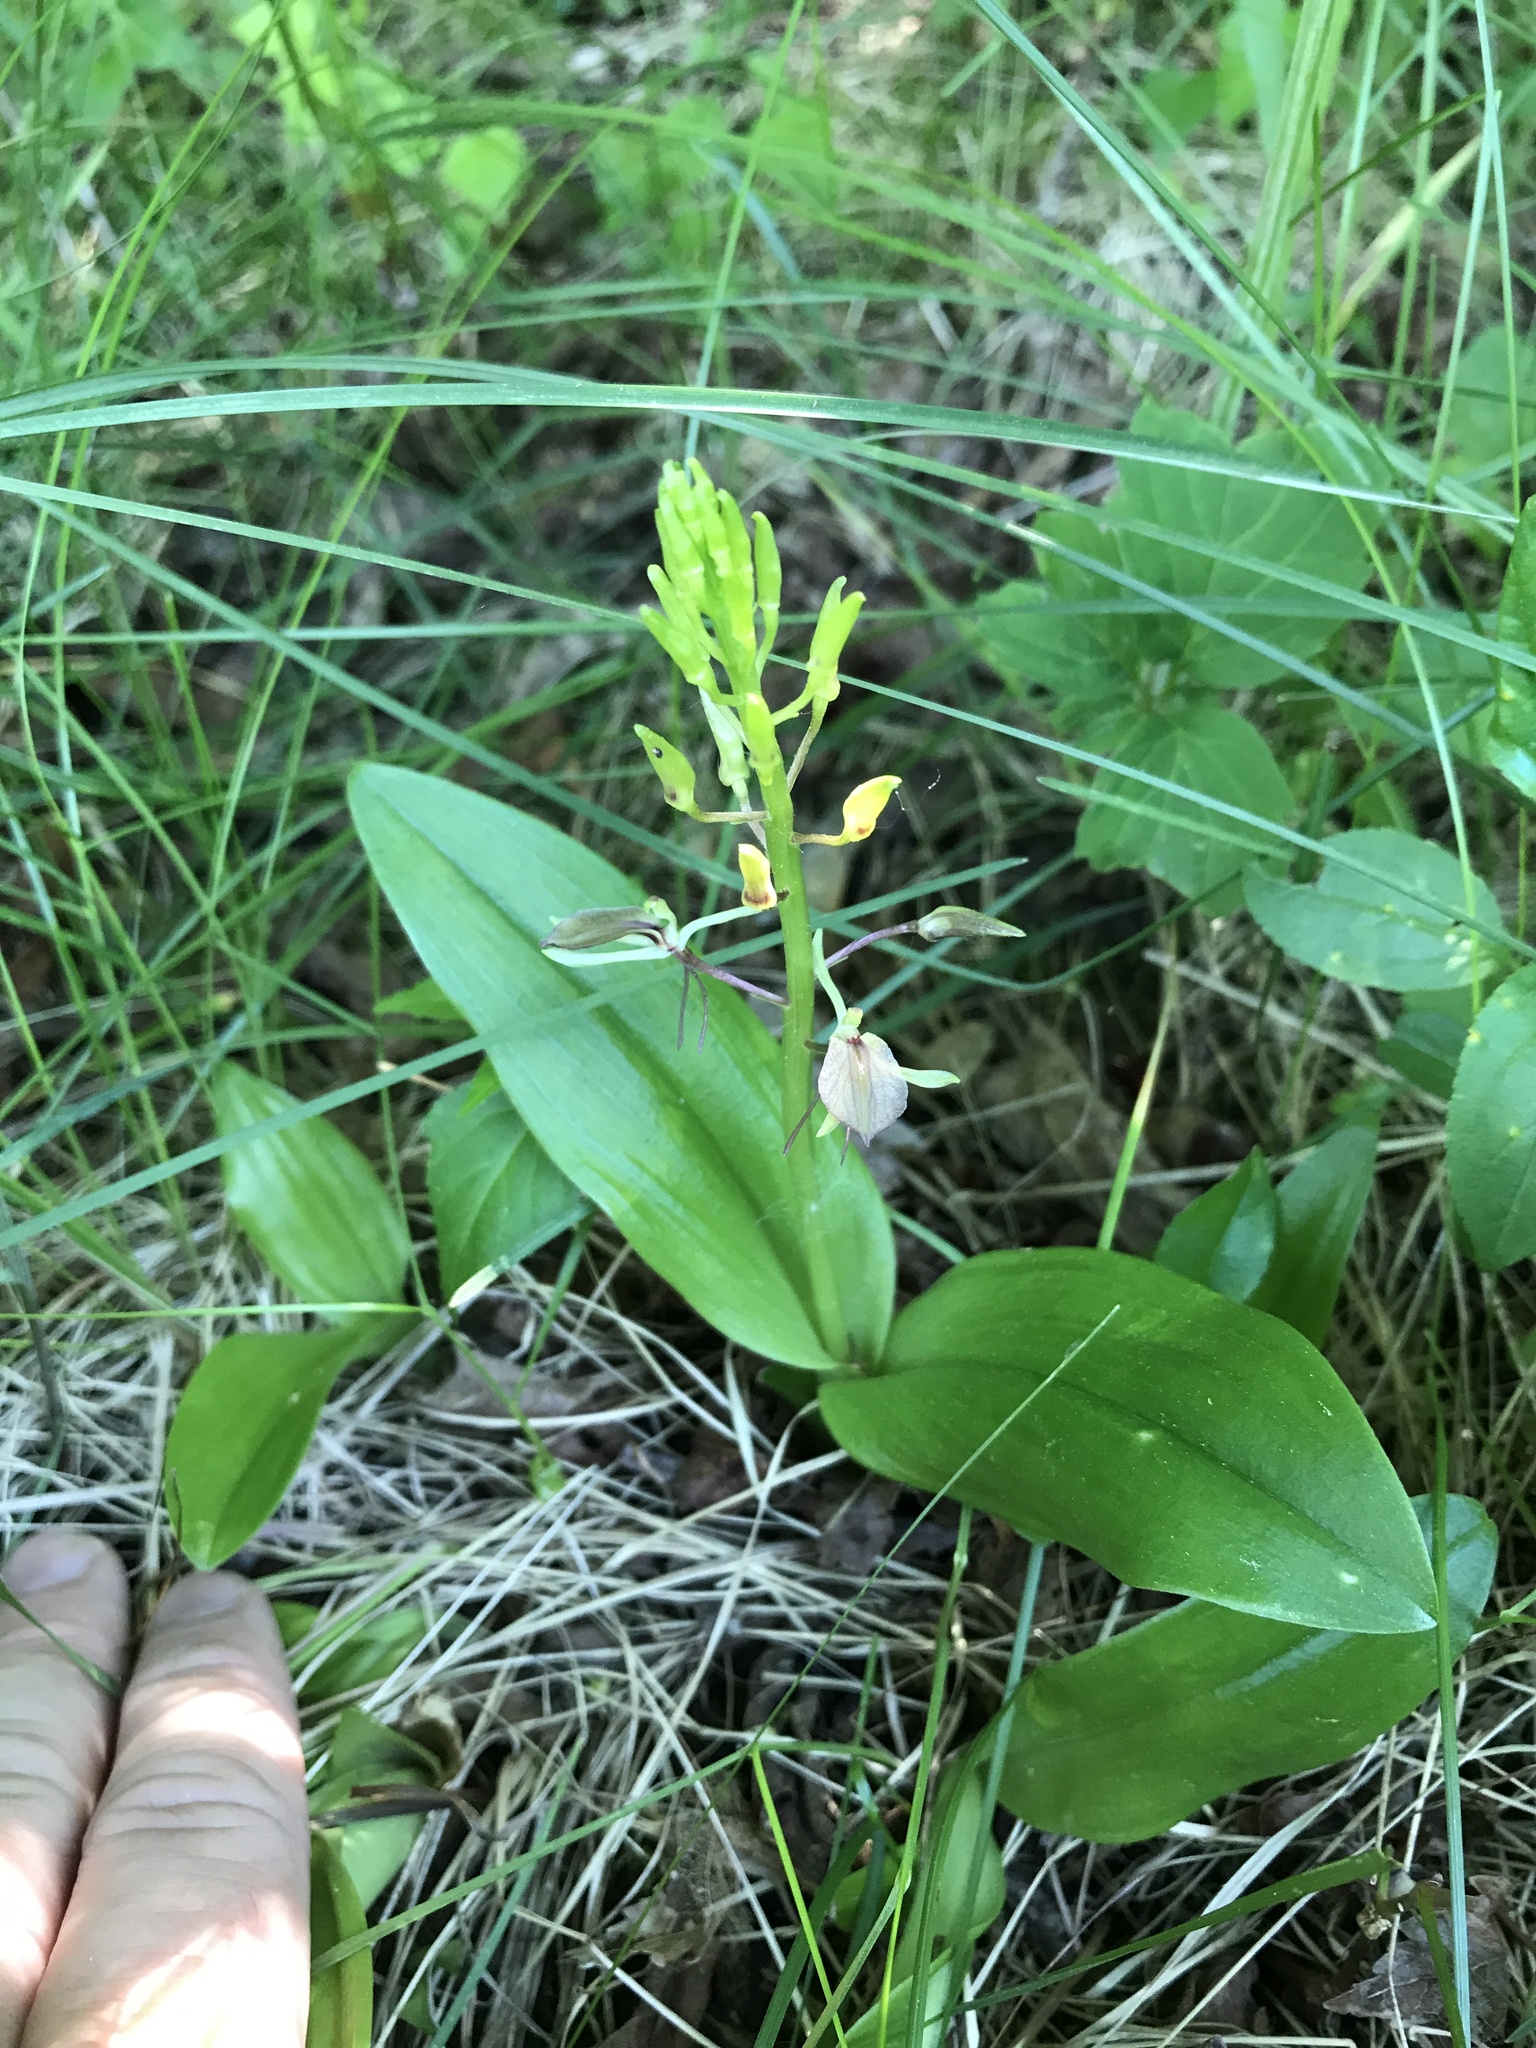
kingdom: Plantae
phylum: Tracheophyta
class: Liliopsida
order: Asparagales
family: Orchidaceae
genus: Liparis
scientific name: Liparis liliifolia
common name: Brown wide-lip orchid
